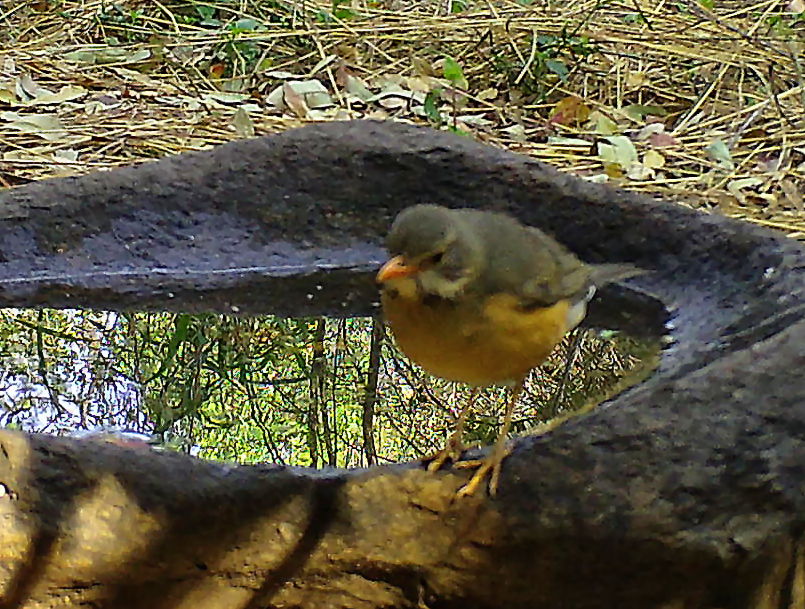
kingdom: Animalia
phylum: Chordata
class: Aves
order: Passeriformes
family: Turdidae
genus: Turdus
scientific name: Turdus libonyana
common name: Kurrichane thrush
